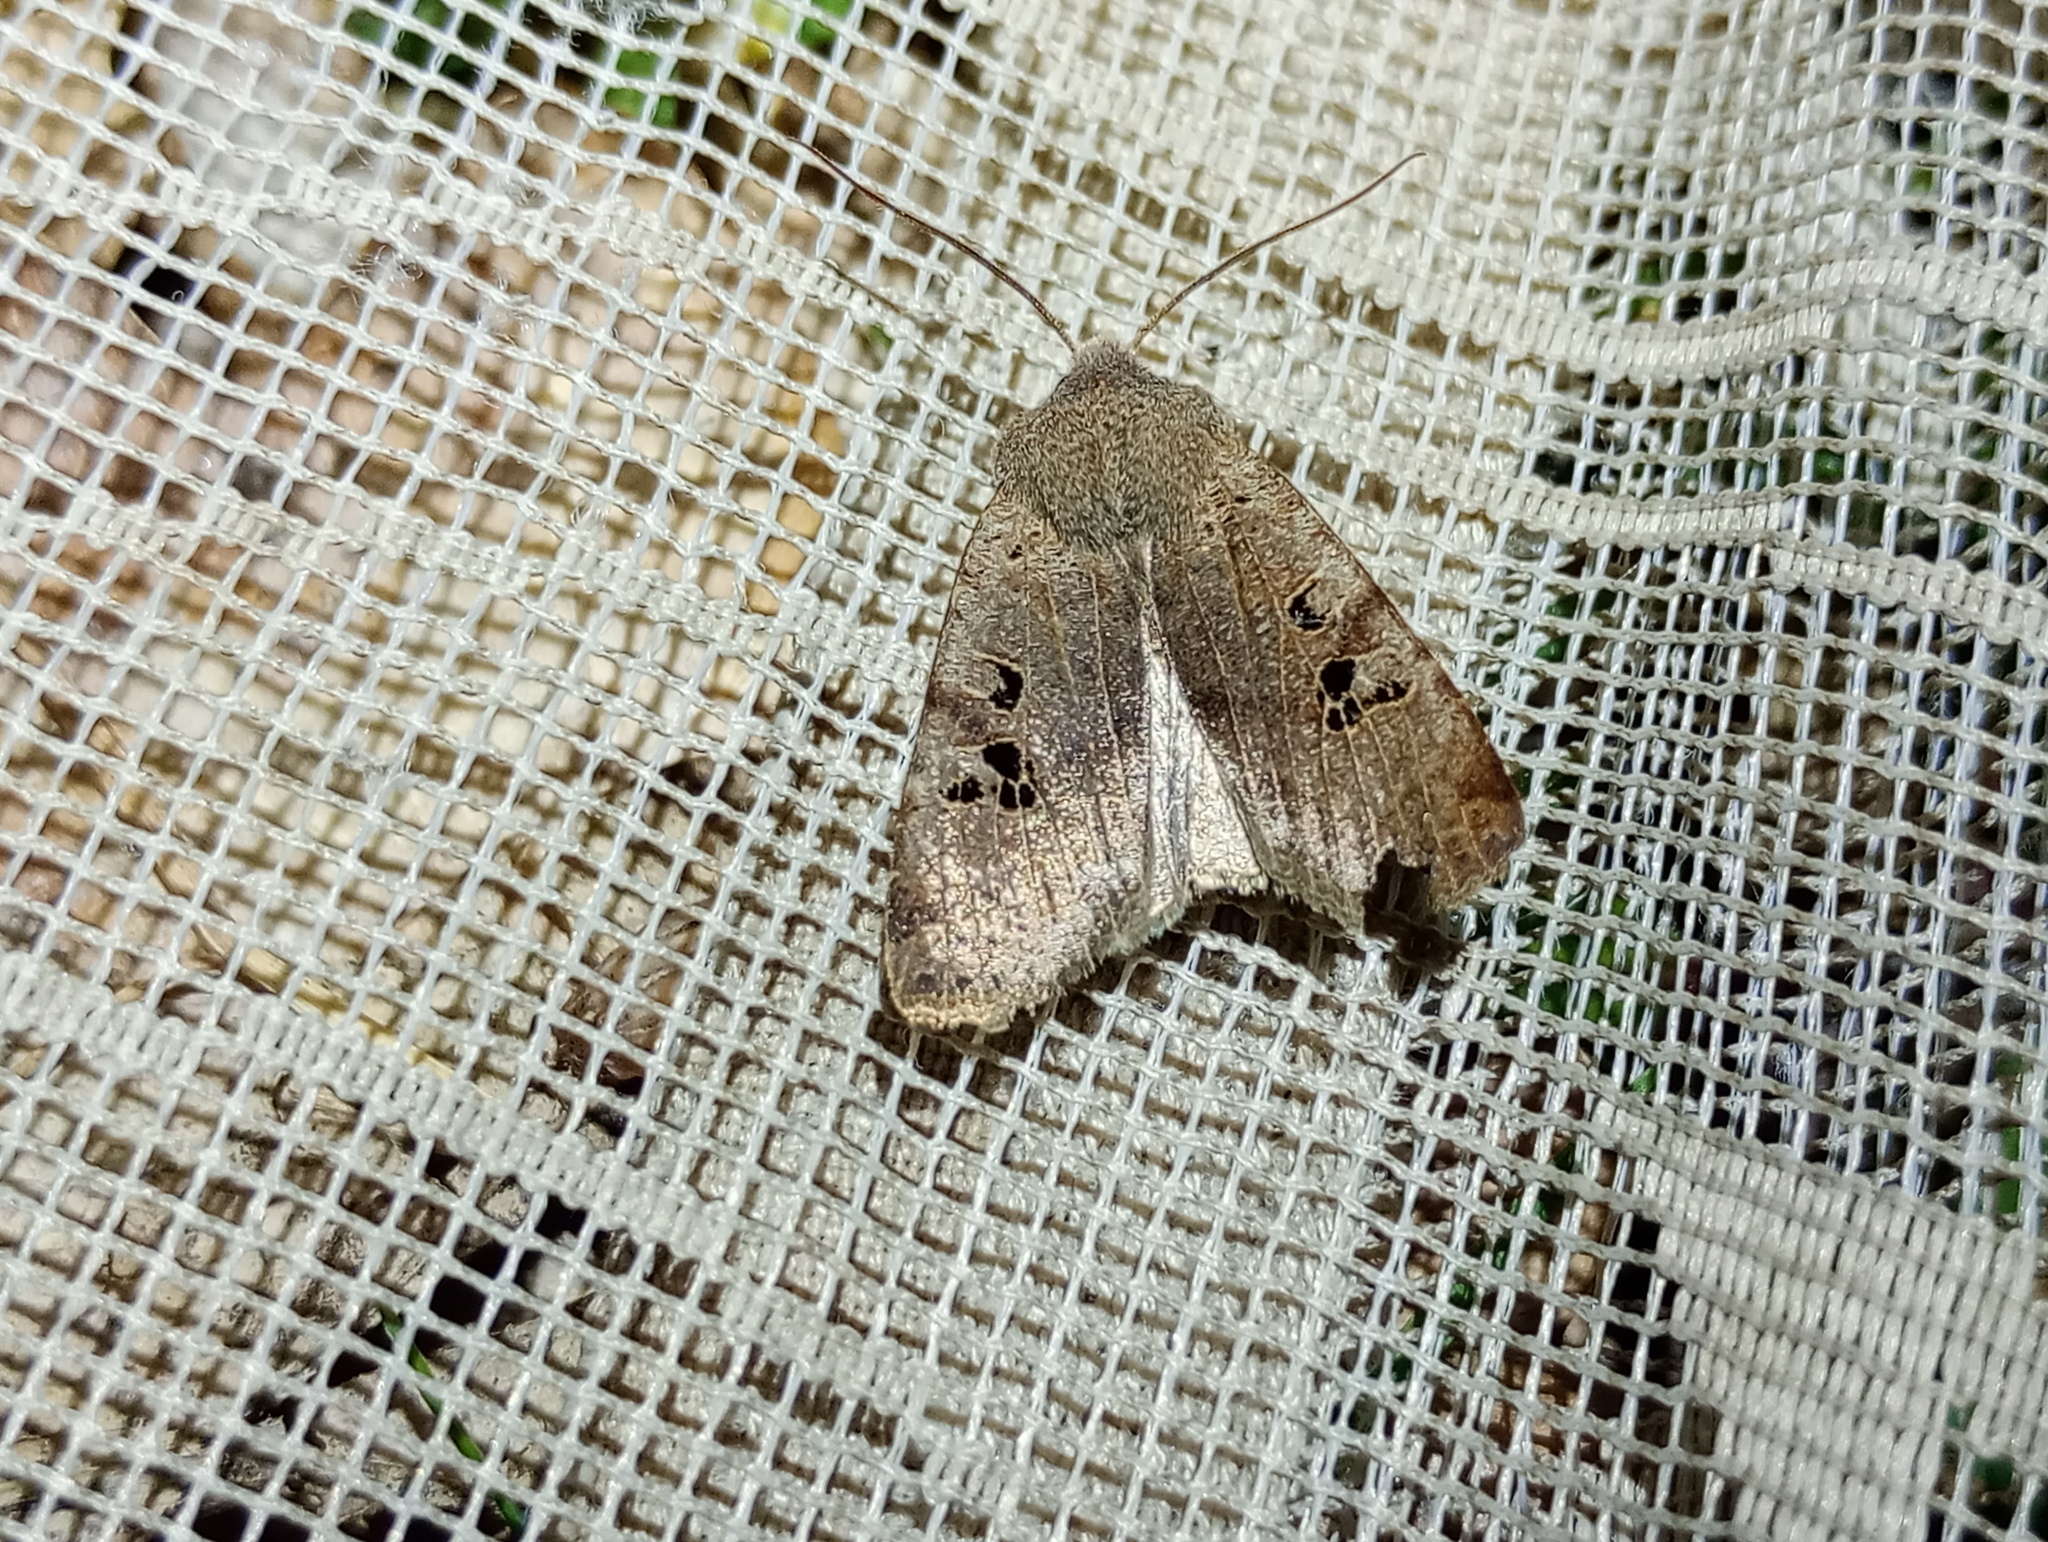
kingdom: Animalia
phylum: Arthropoda
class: Insecta
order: Lepidoptera
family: Noctuidae
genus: Conistra
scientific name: Conistra rubiginosa
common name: Black-spotted chestnut
